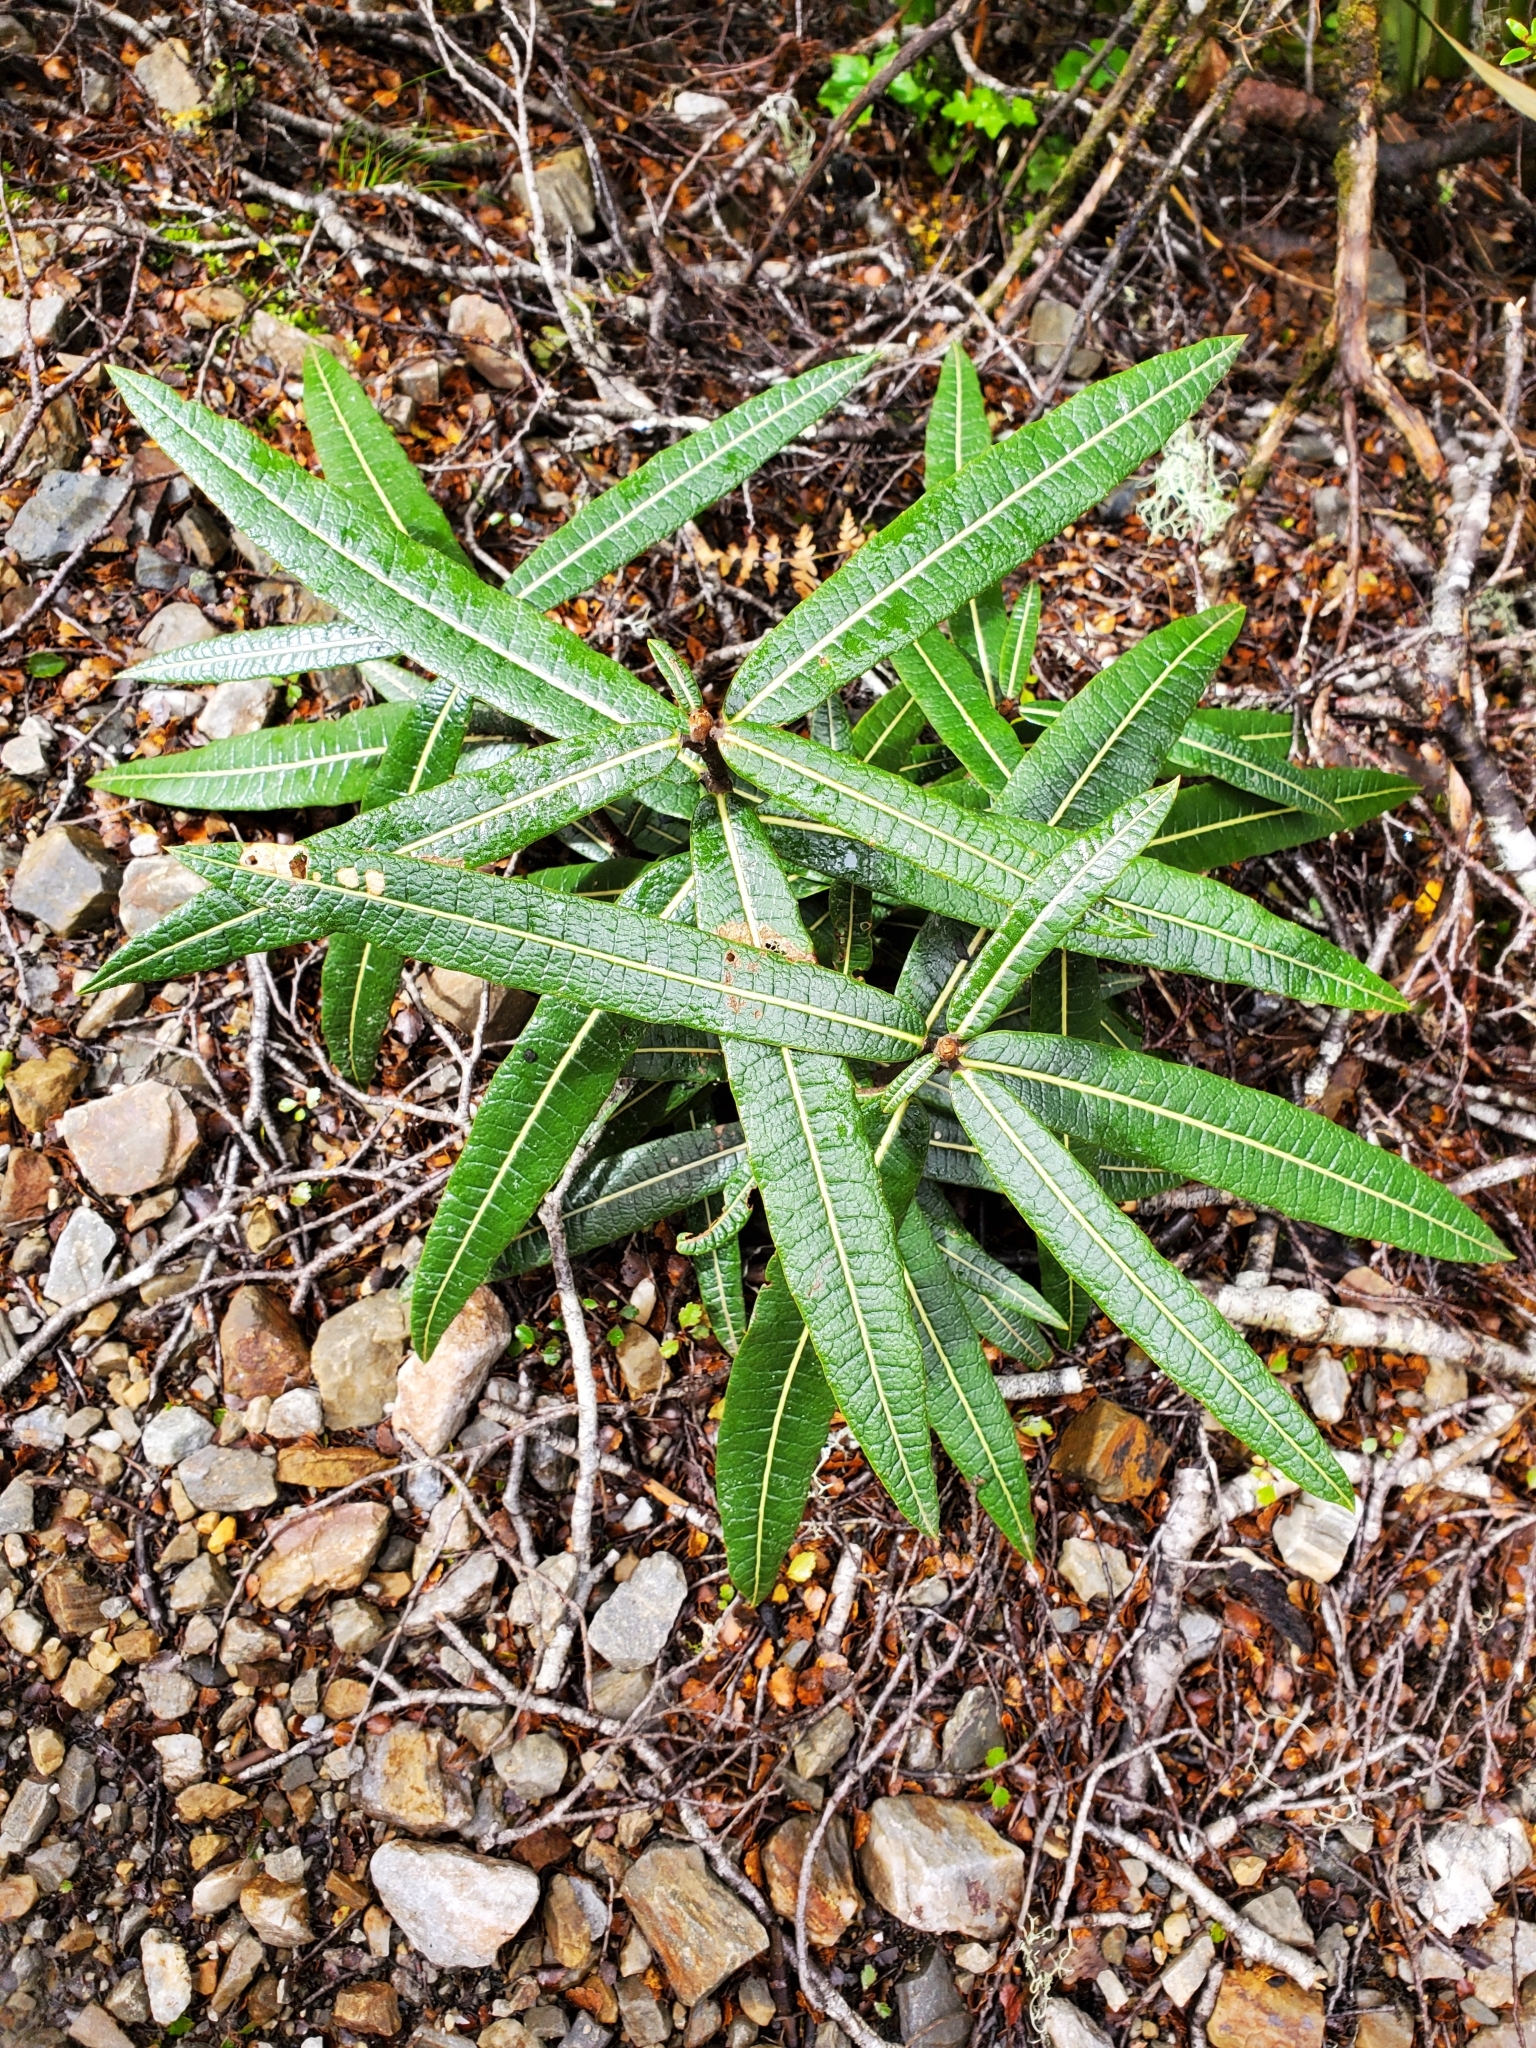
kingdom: Plantae
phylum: Tracheophyta
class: Magnoliopsida
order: Asterales
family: Asteraceae
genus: Olearia
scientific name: Olearia lacunosa
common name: Lancewood tree daisy
